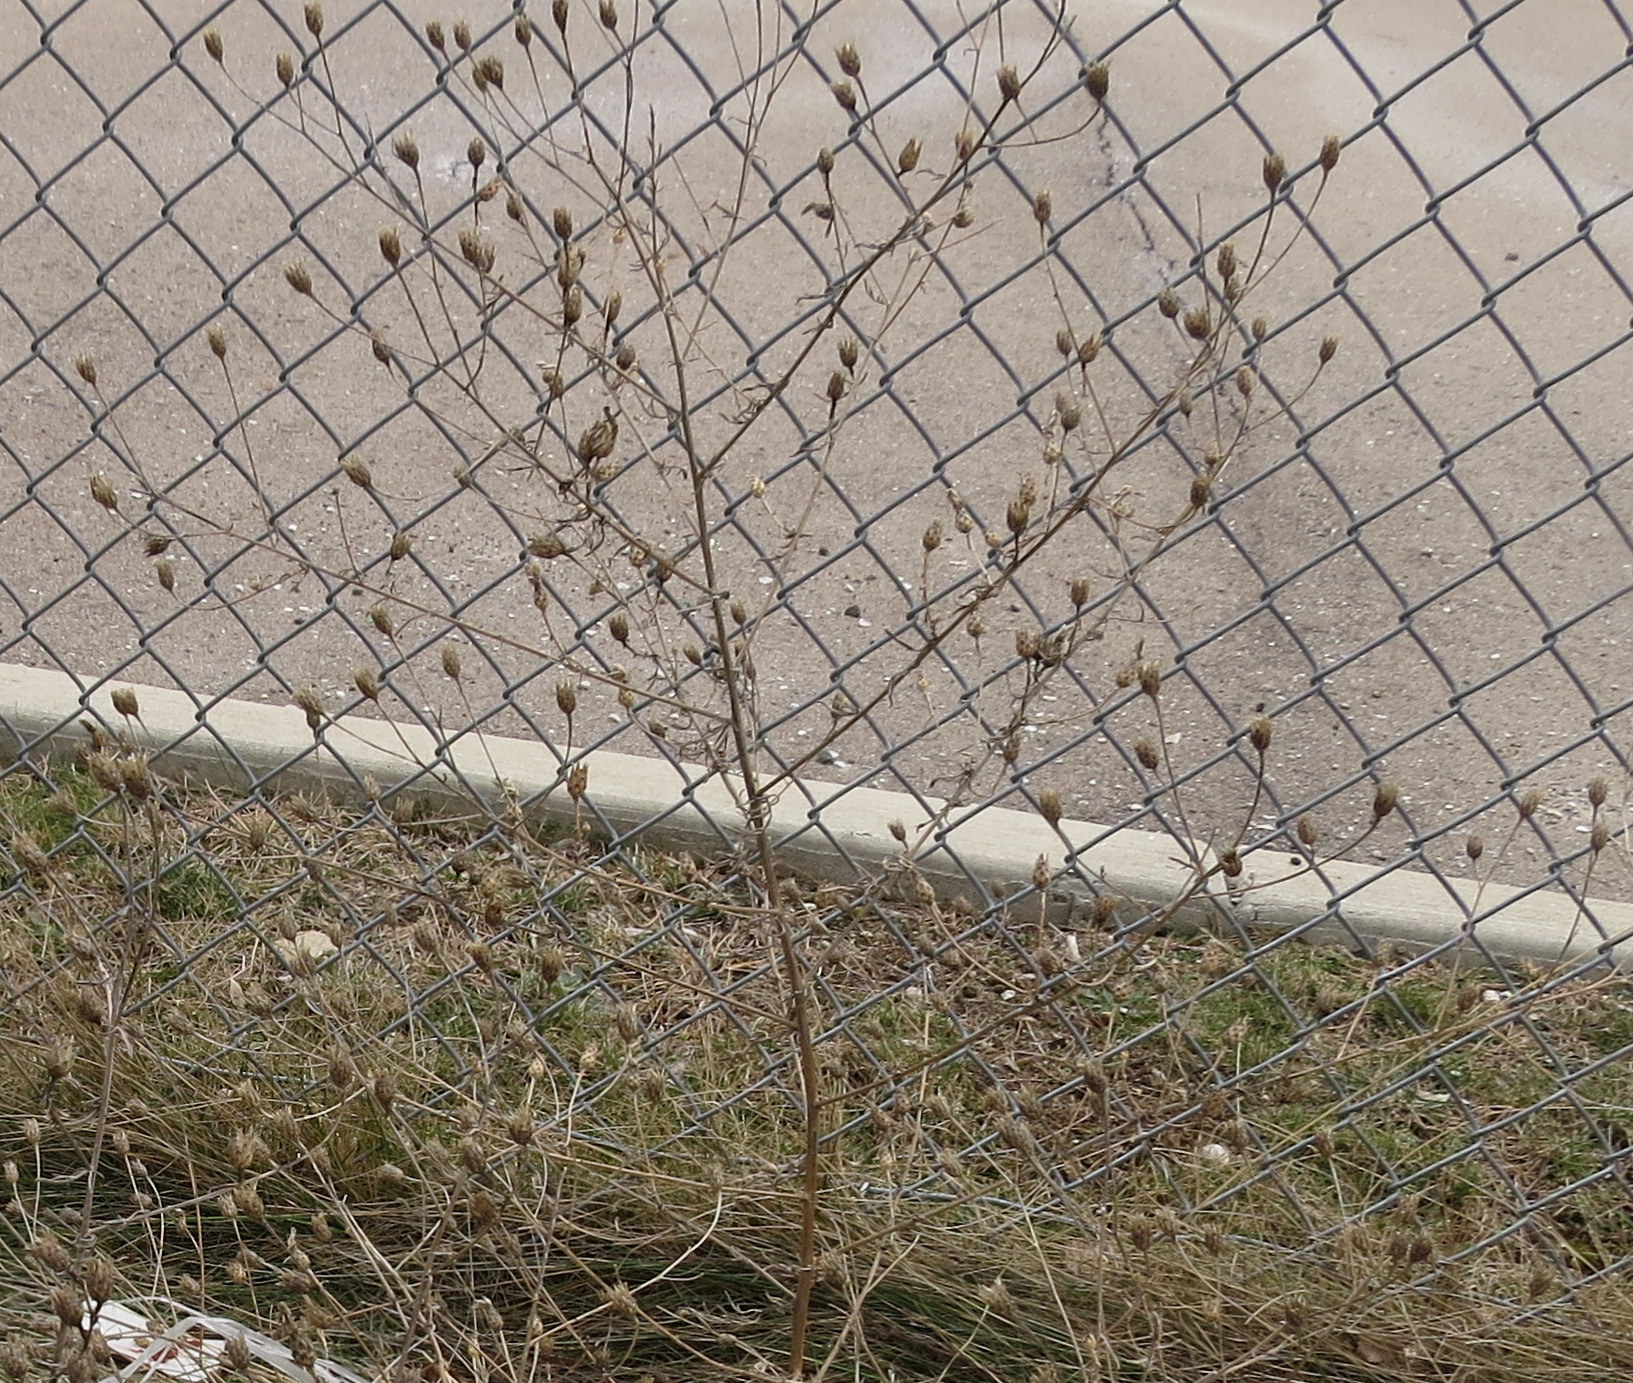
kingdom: Plantae
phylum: Tracheophyta
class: Magnoliopsida
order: Asterales
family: Asteraceae
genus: Centaurea
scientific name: Centaurea stoebe
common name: Spotted knapweed
